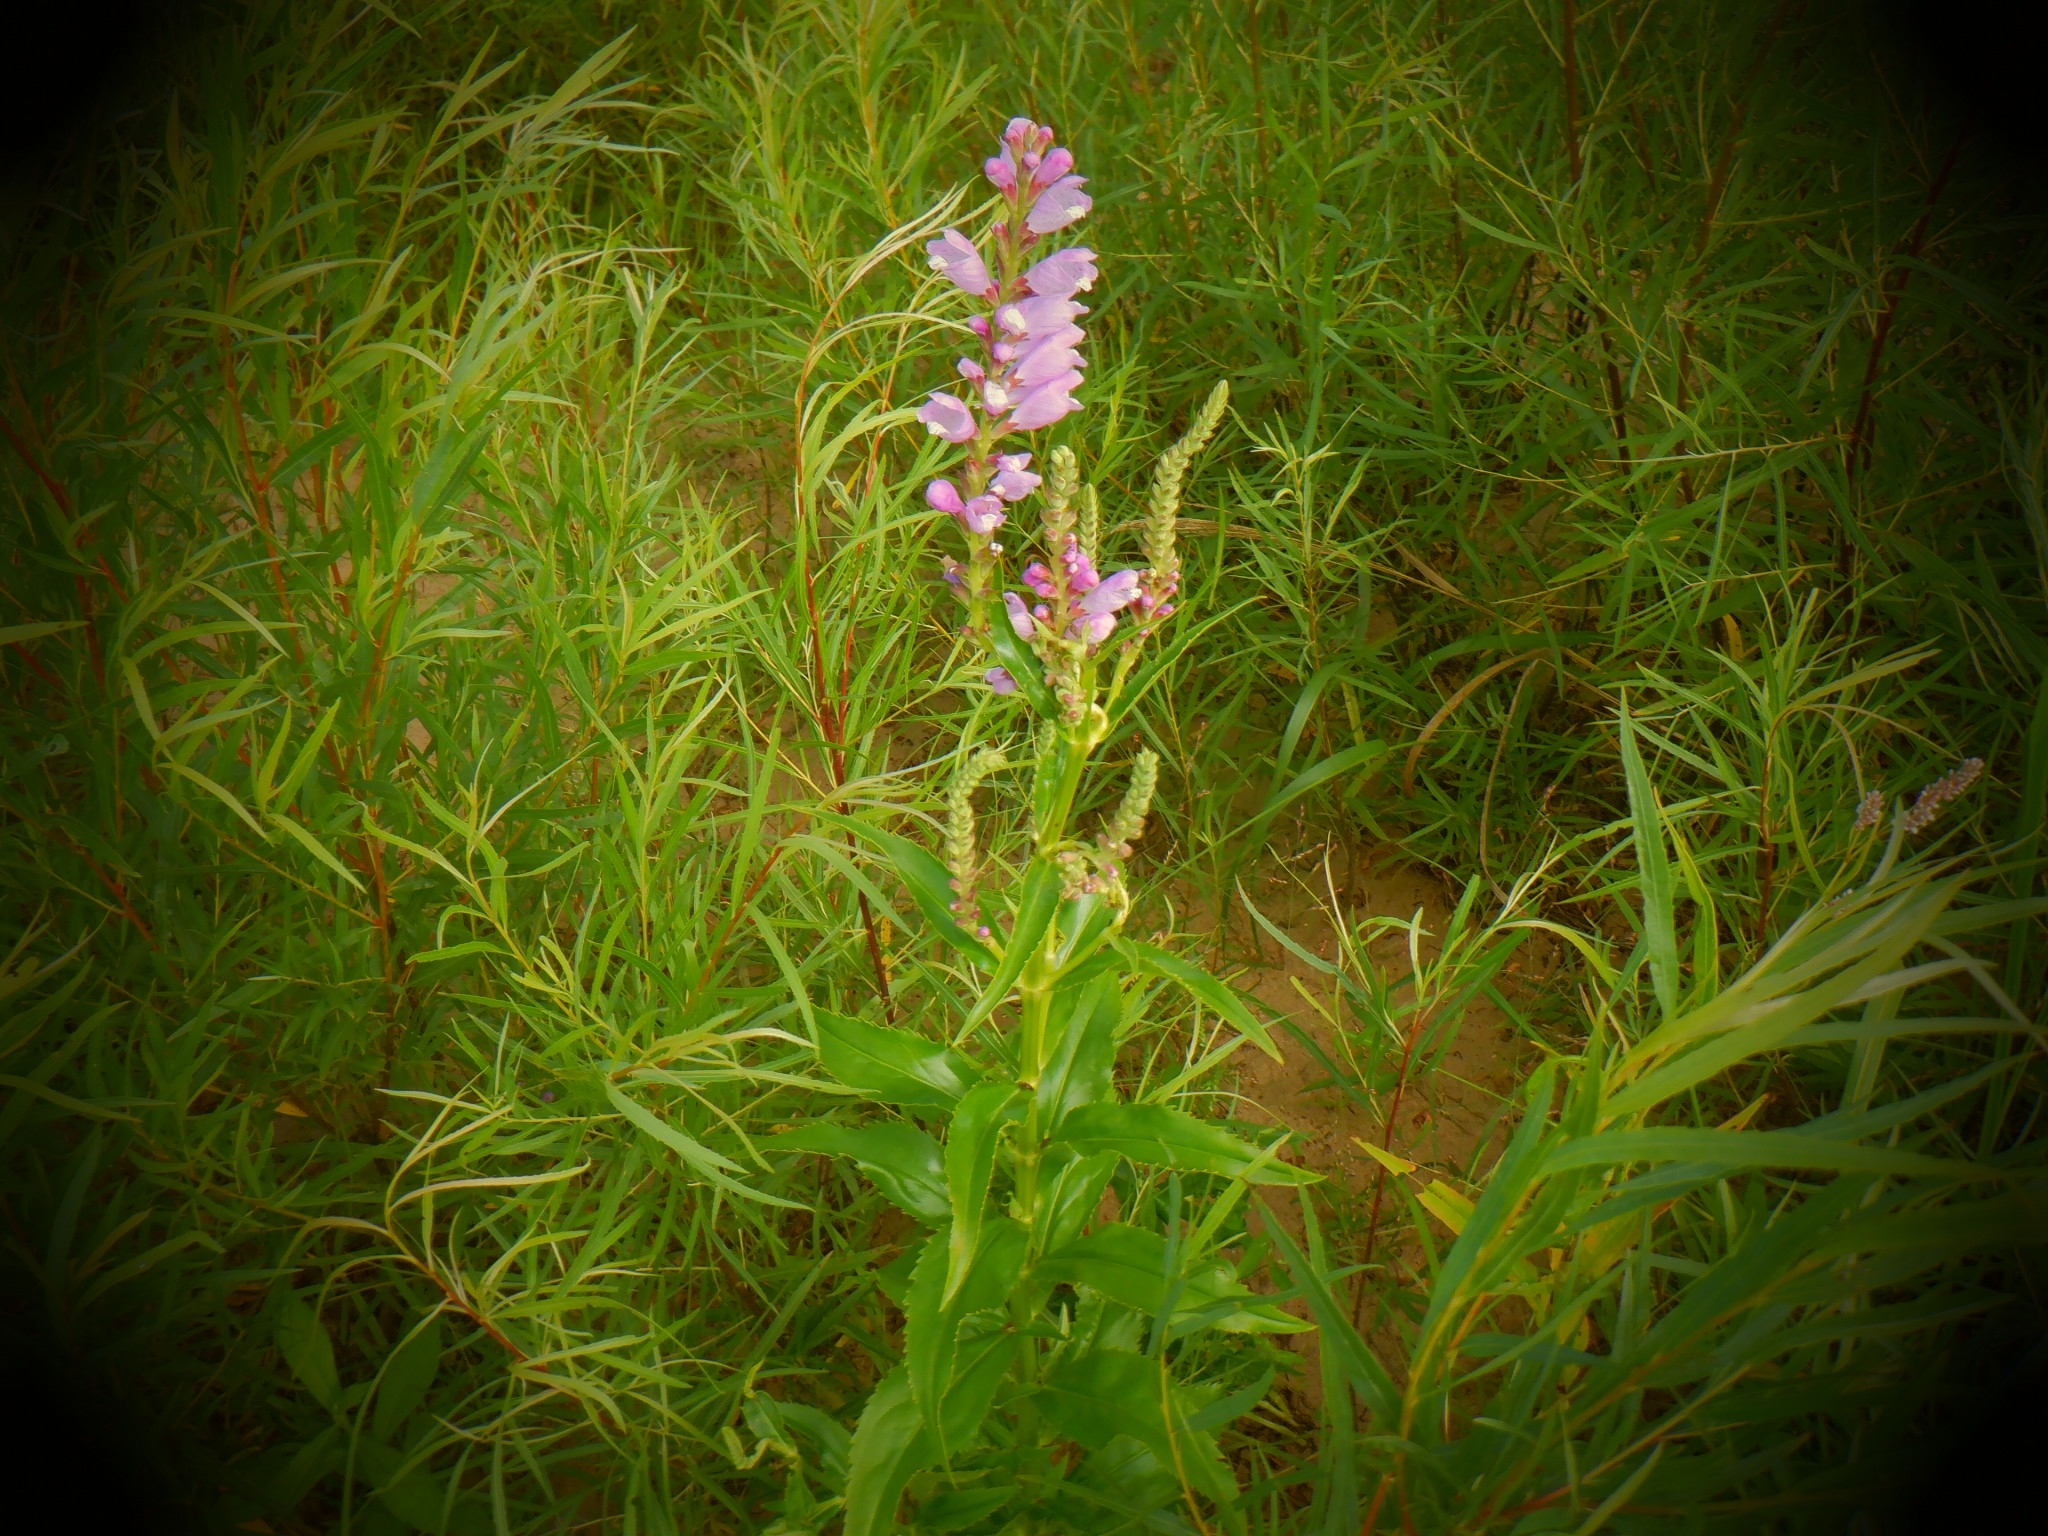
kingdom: Plantae
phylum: Tracheophyta
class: Magnoliopsida
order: Lamiales
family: Lamiaceae
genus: Physostegia
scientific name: Physostegia virginiana
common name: Obedient-plant
